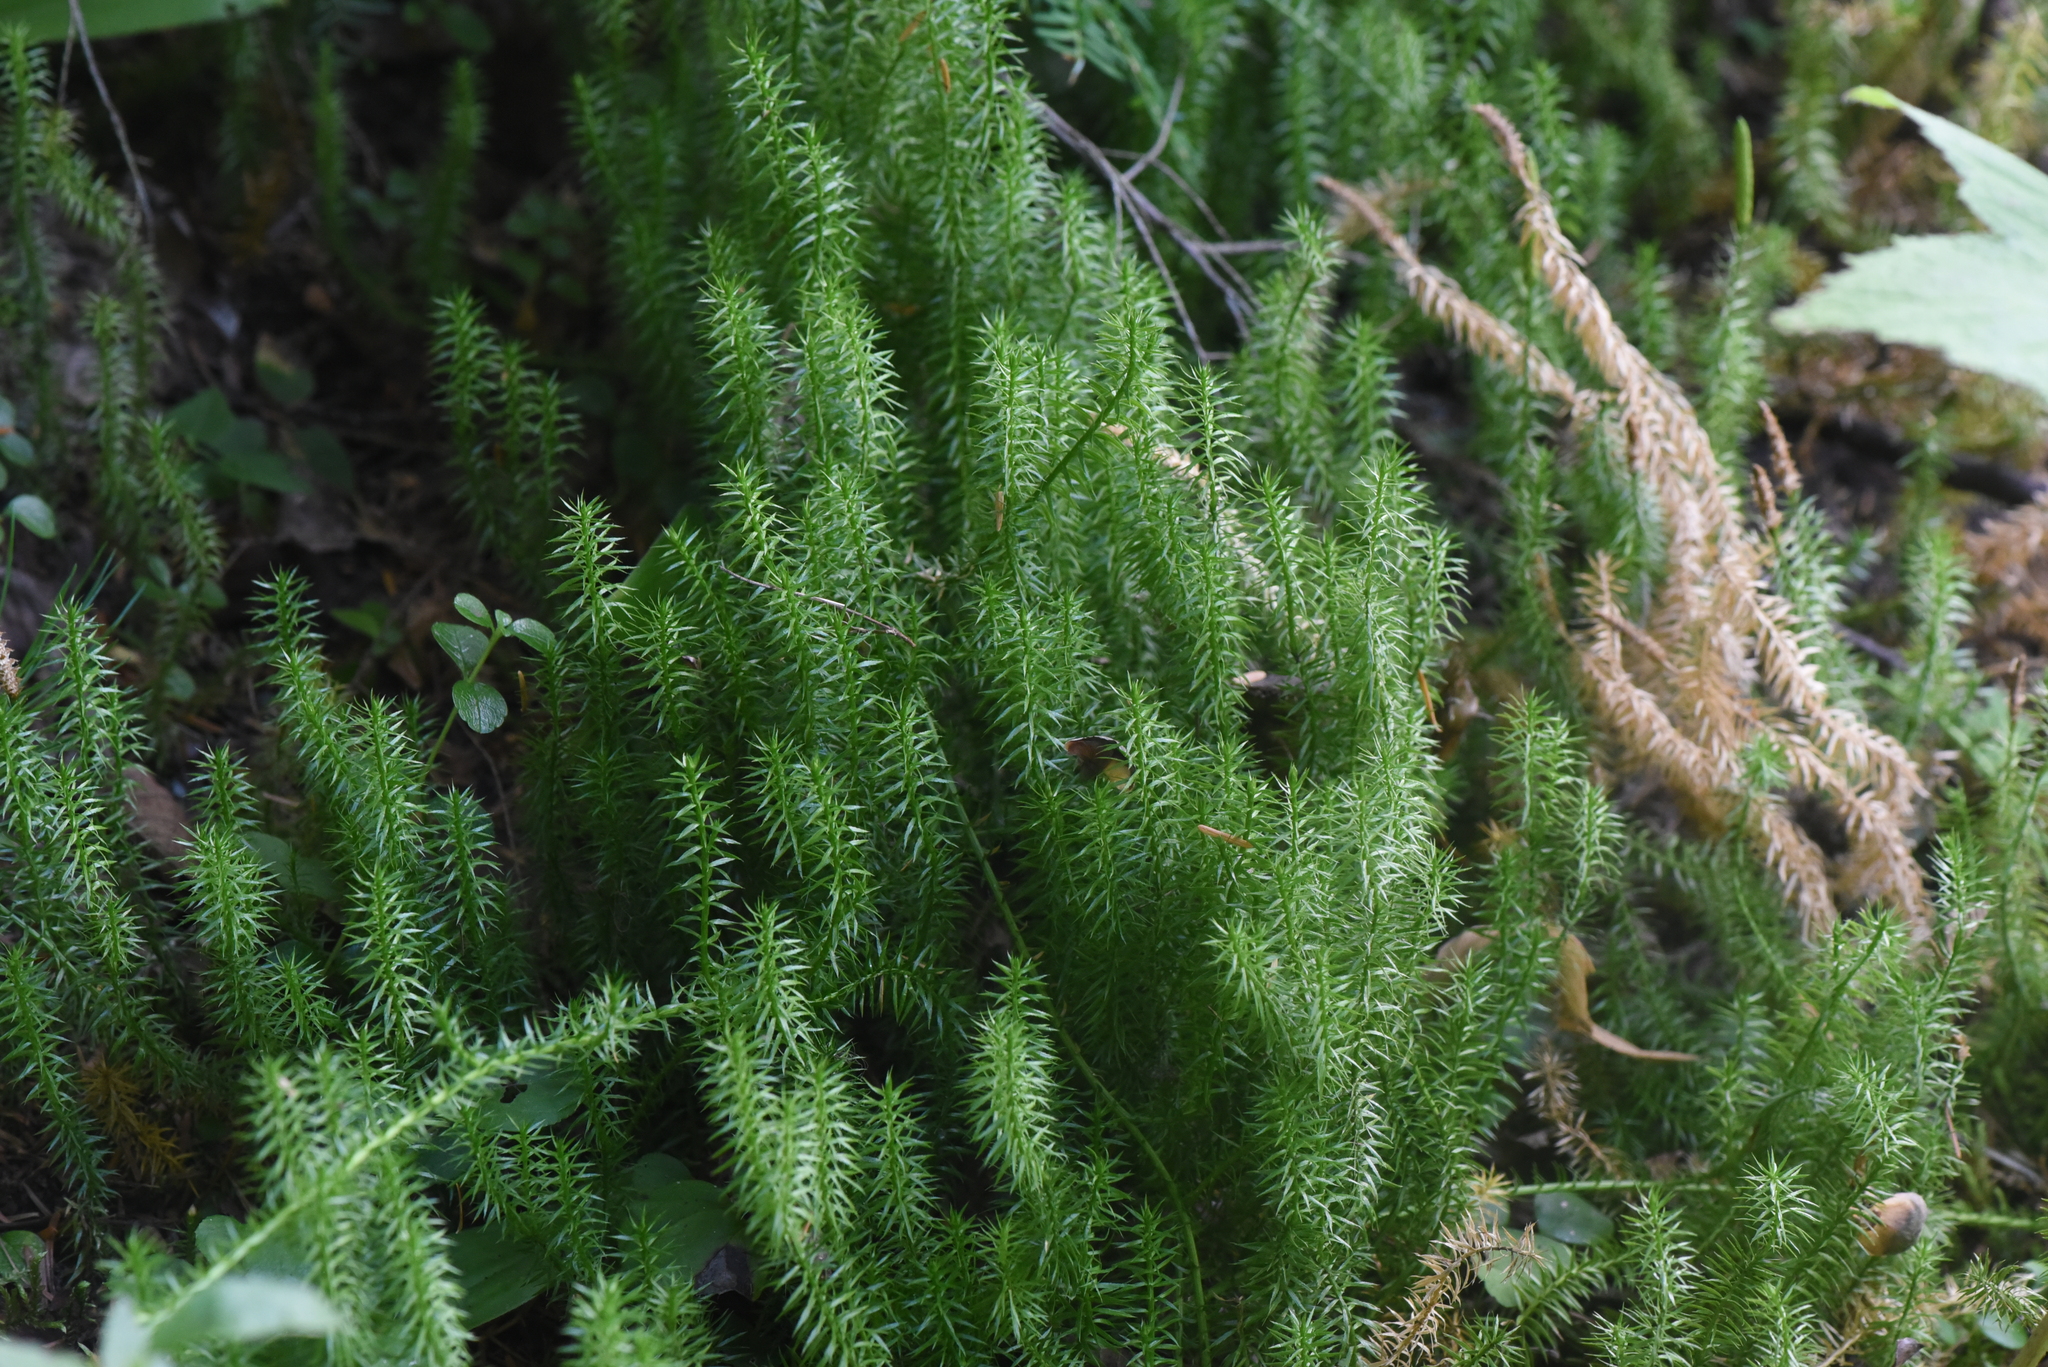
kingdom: Plantae
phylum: Tracheophyta
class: Lycopodiopsida
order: Lycopodiales
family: Lycopodiaceae
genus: Spinulum
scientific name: Spinulum annotinum
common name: Interrupted club-moss
